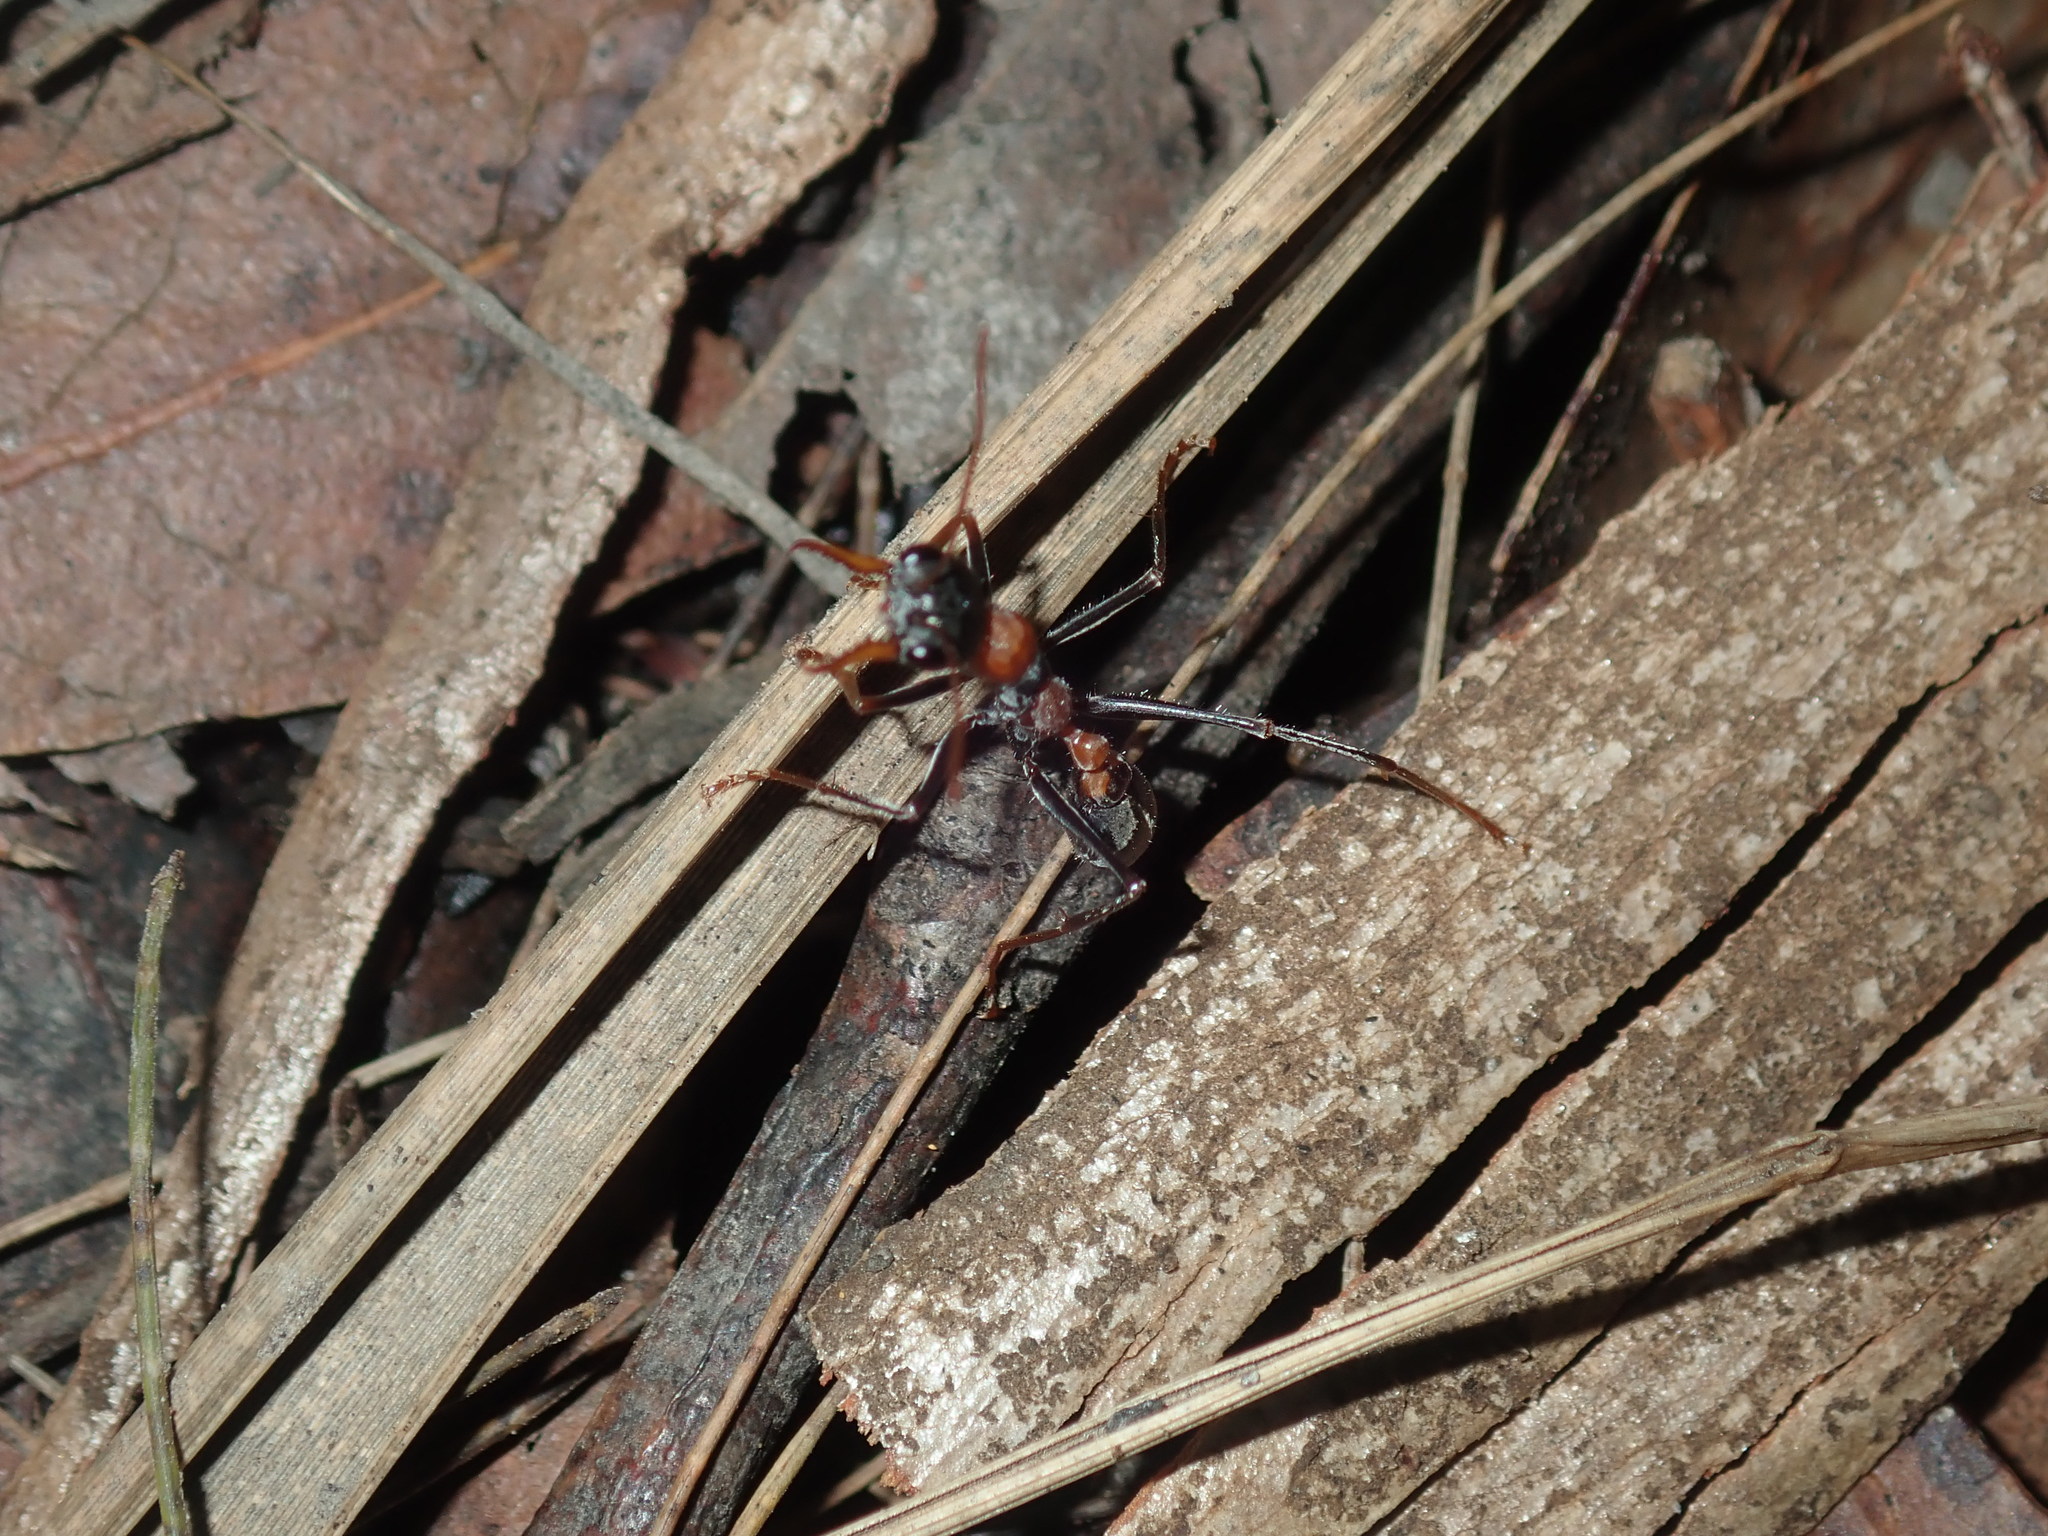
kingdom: Animalia
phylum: Arthropoda
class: Insecta
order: Hymenoptera
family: Formicidae
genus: Myrmecia
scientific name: Myrmecia nigrocincta
